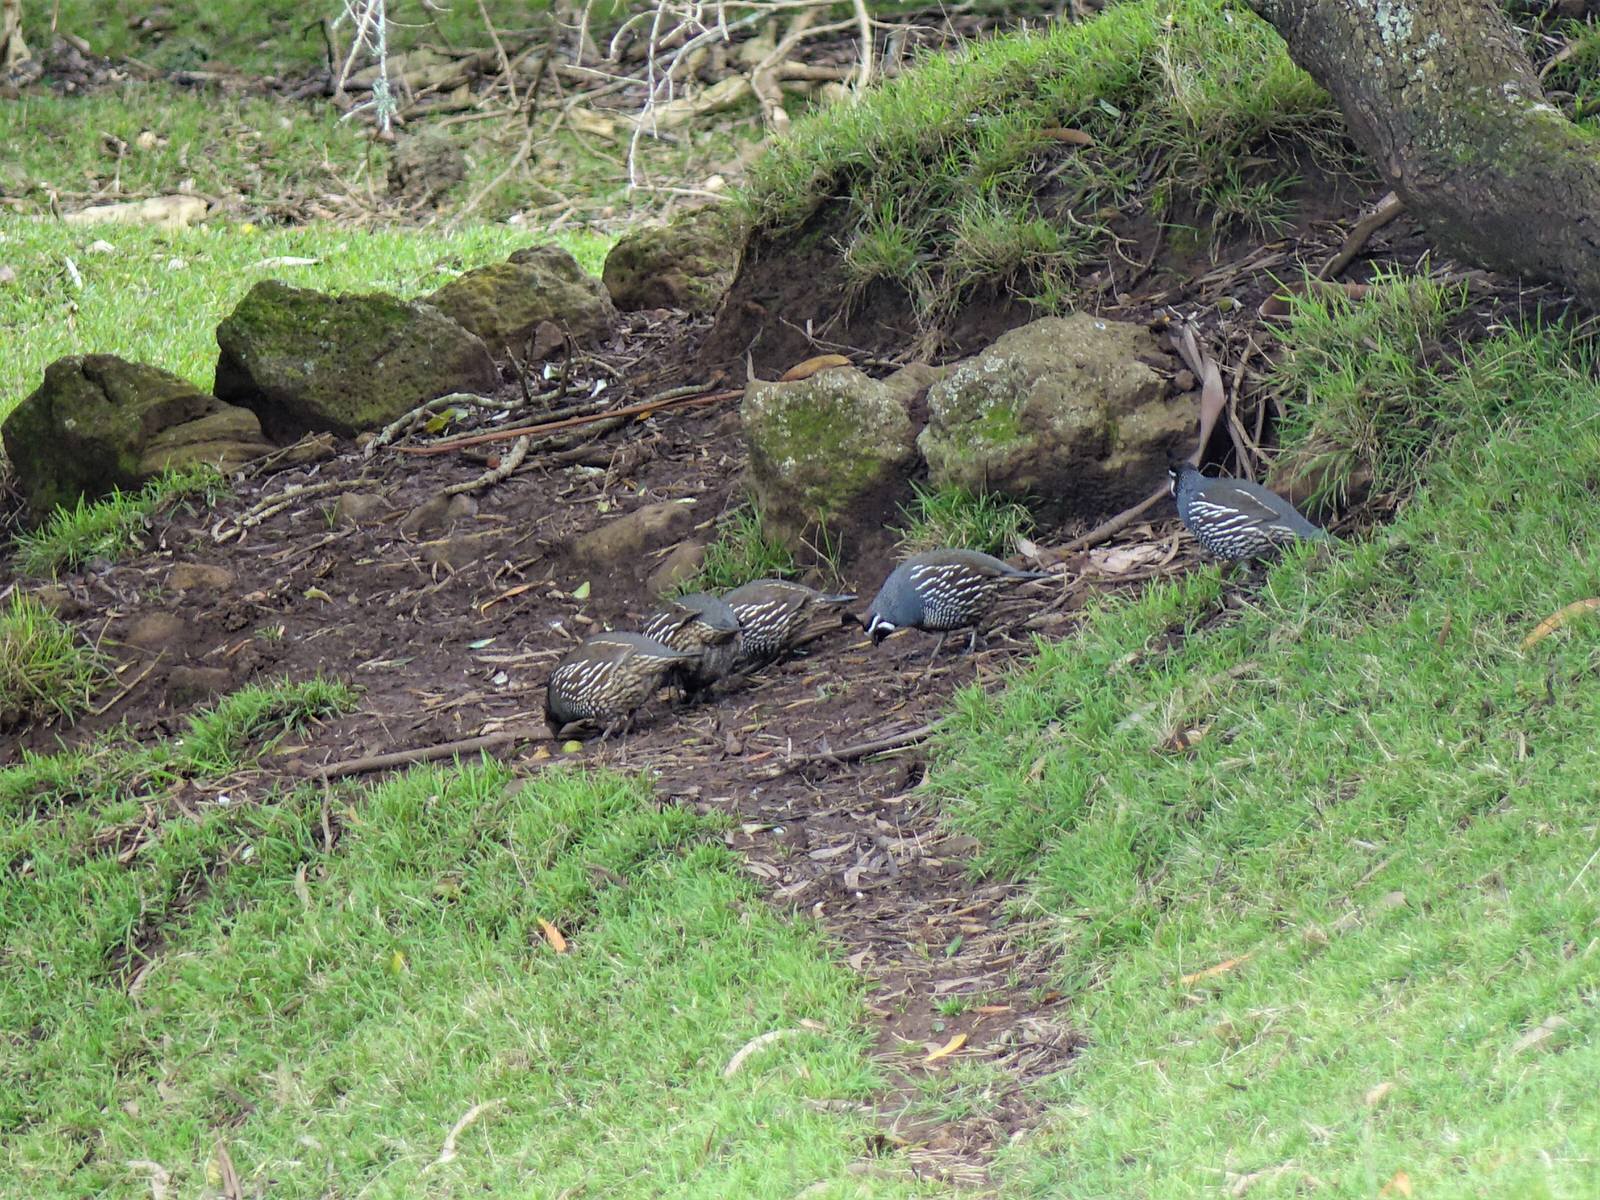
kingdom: Animalia
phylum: Chordata
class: Aves
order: Galliformes
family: Odontophoridae
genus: Callipepla
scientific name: Callipepla californica
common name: California quail
